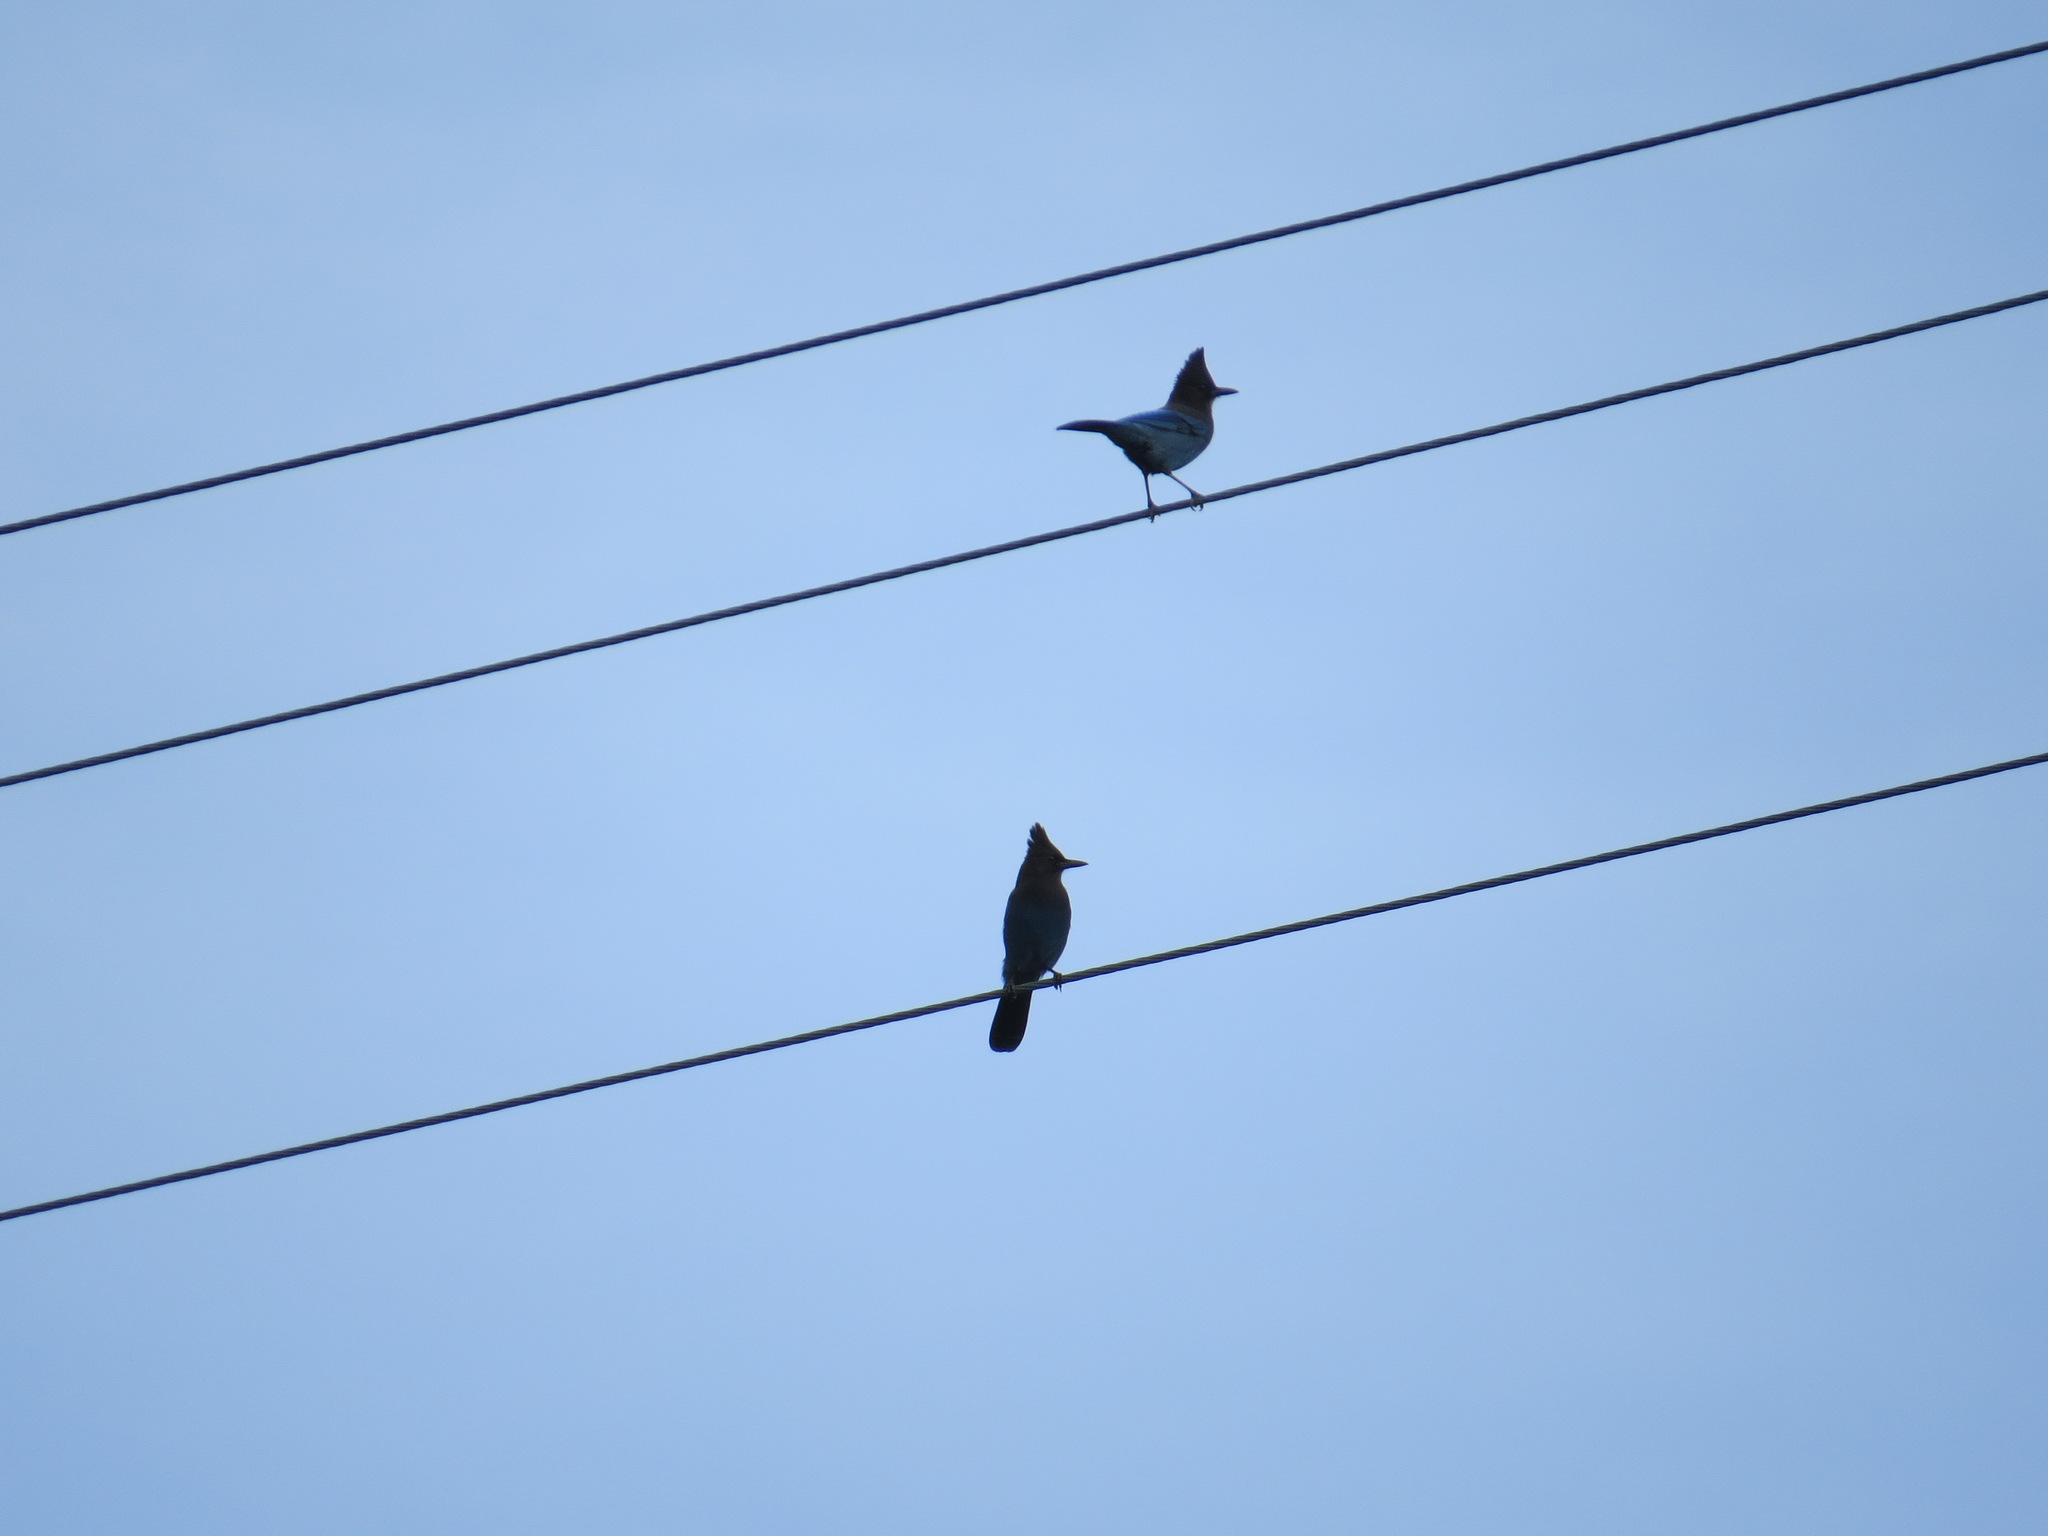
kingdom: Animalia
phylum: Chordata
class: Aves
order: Passeriformes
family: Corvidae
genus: Cyanocitta
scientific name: Cyanocitta stelleri
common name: Steller's jay
